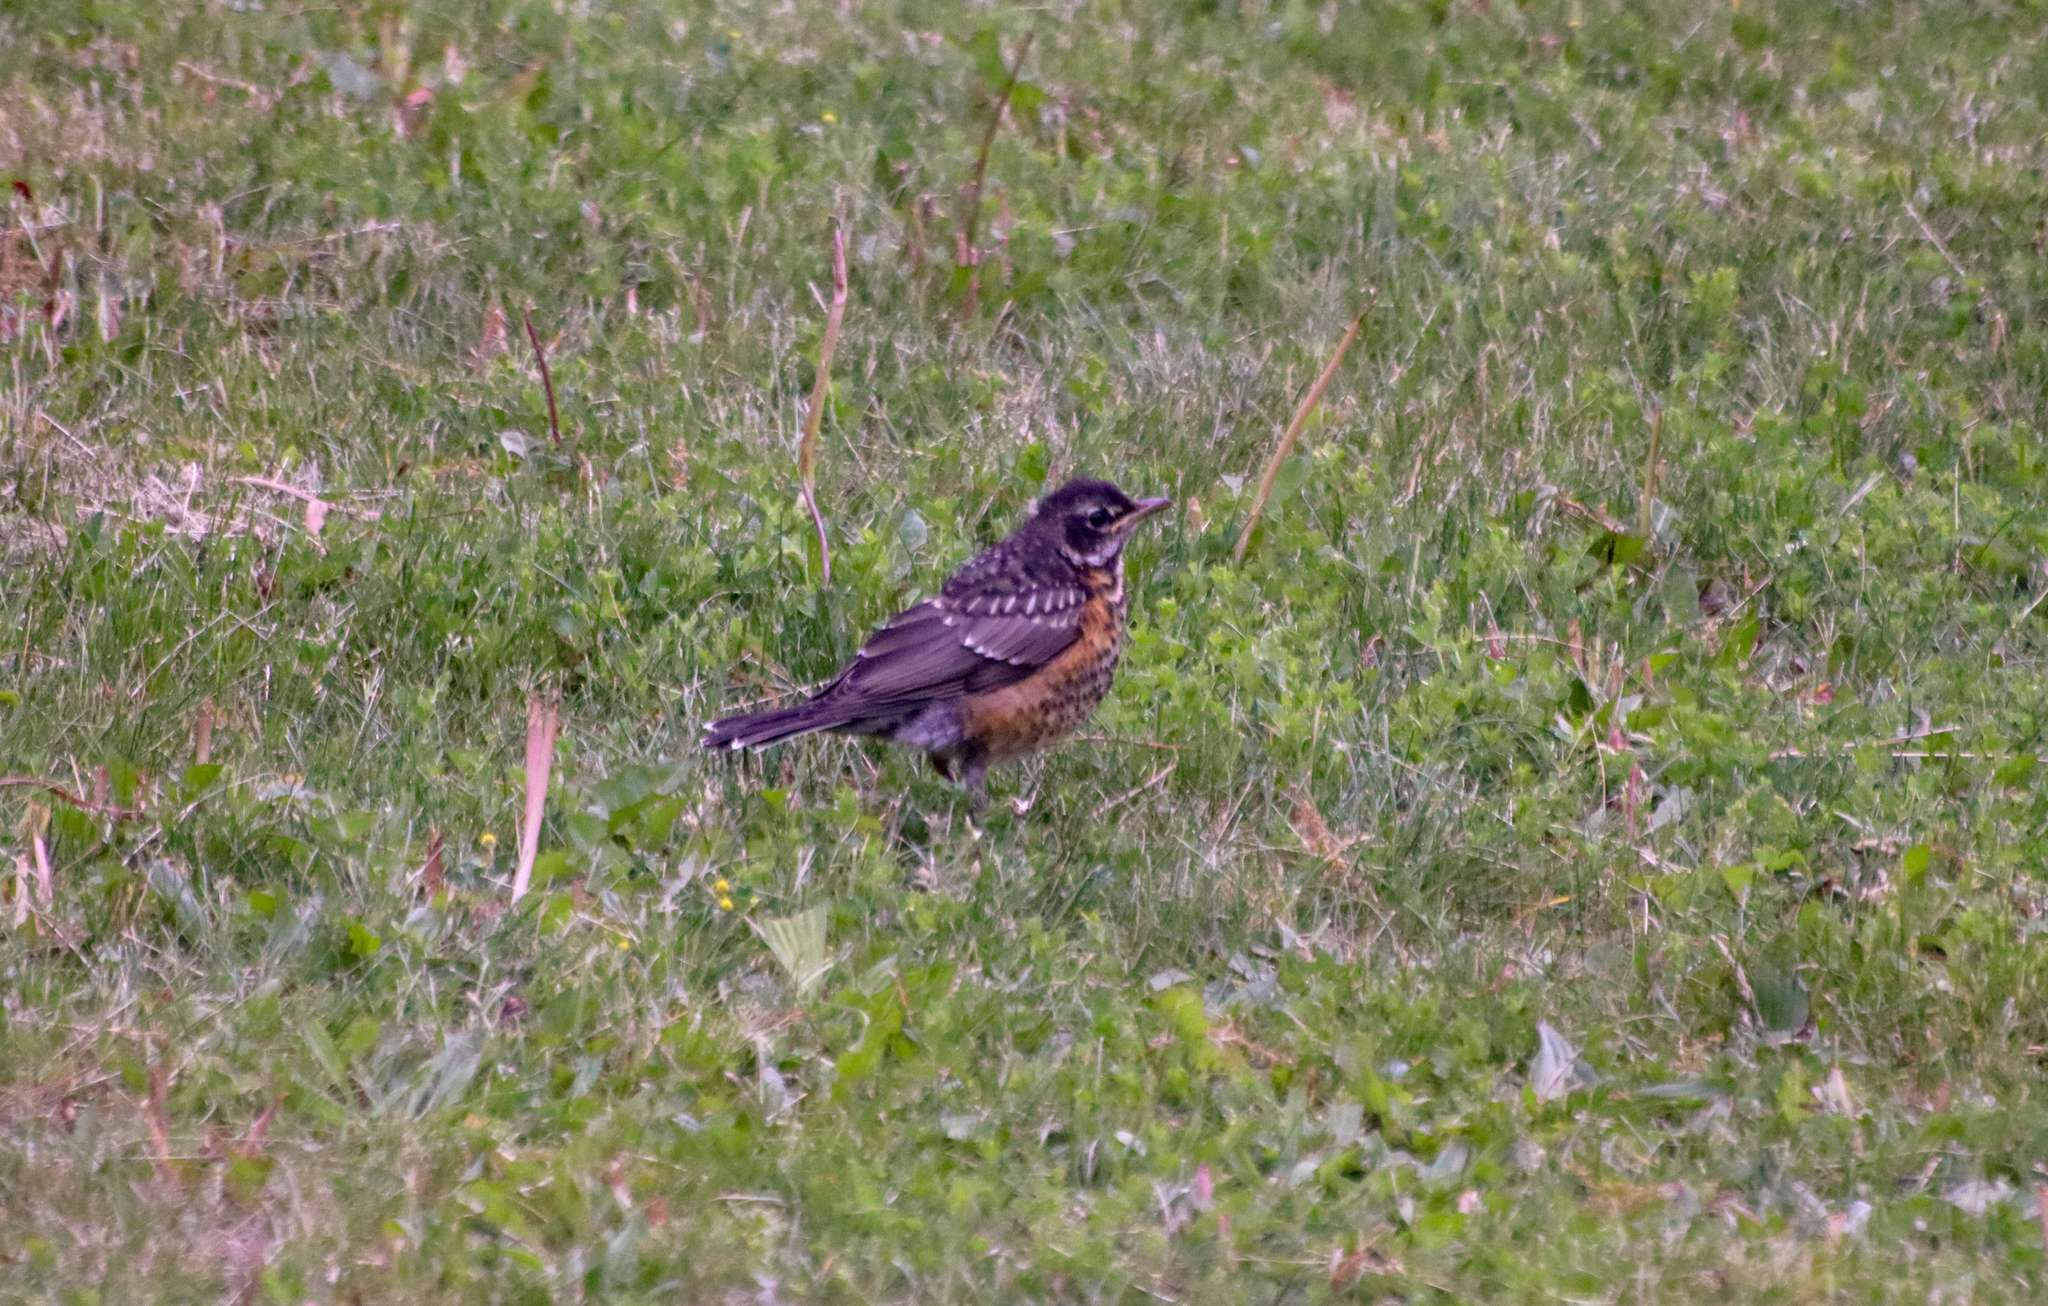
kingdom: Animalia
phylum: Chordata
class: Aves
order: Passeriformes
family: Turdidae
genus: Turdus
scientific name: Turdus migratorius
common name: American robin
